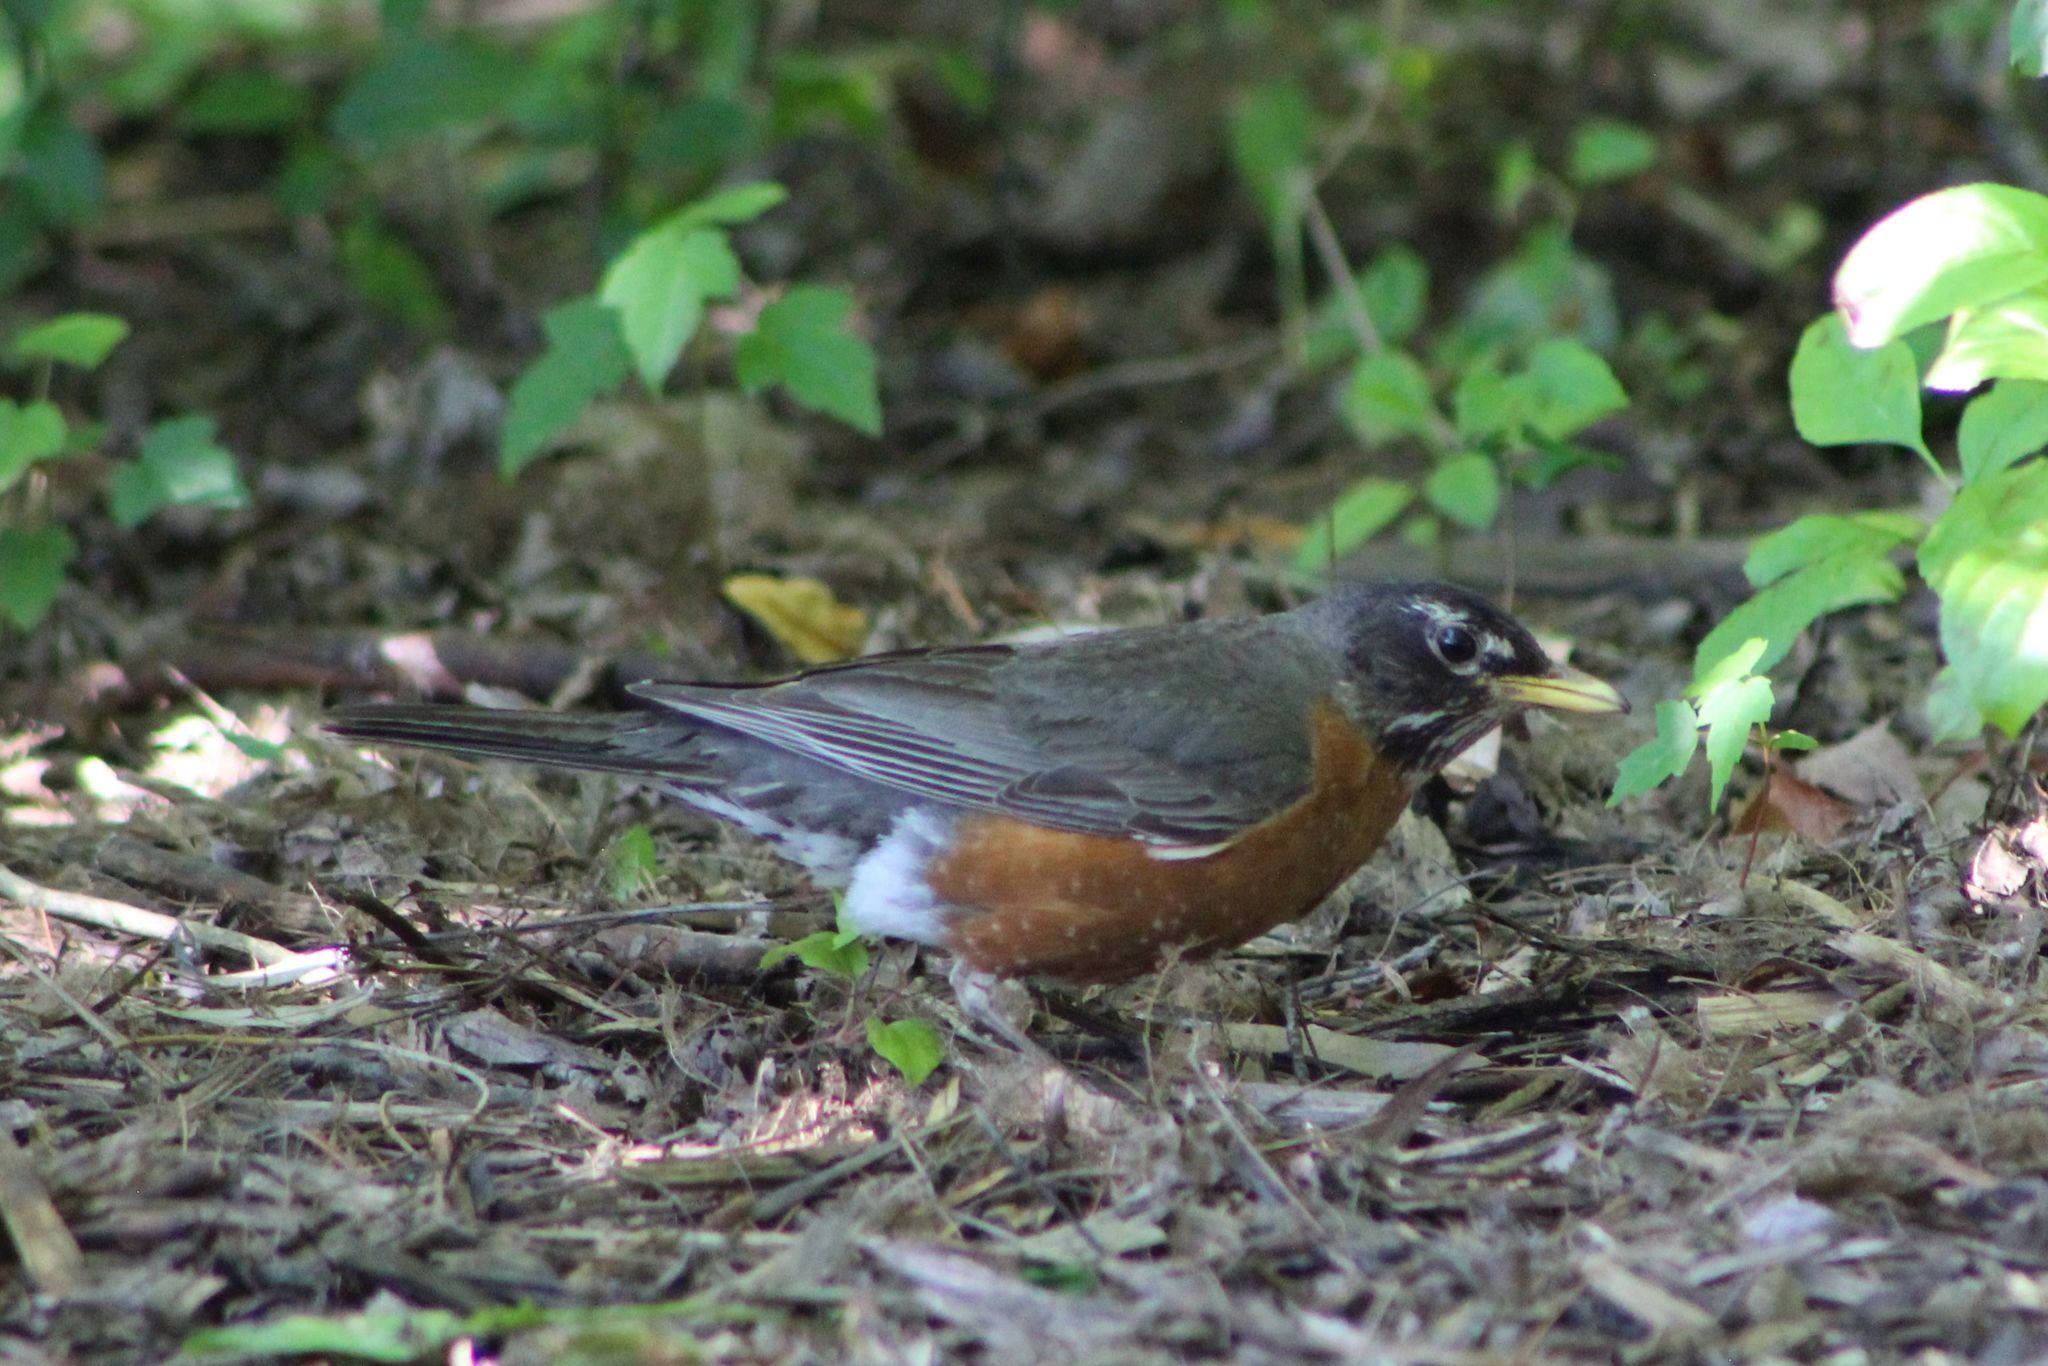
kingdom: Animalia
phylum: Chordata
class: Aves
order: Passeriformes
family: Turdidae
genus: Turdus
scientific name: Turdus migratorius
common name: American robin
